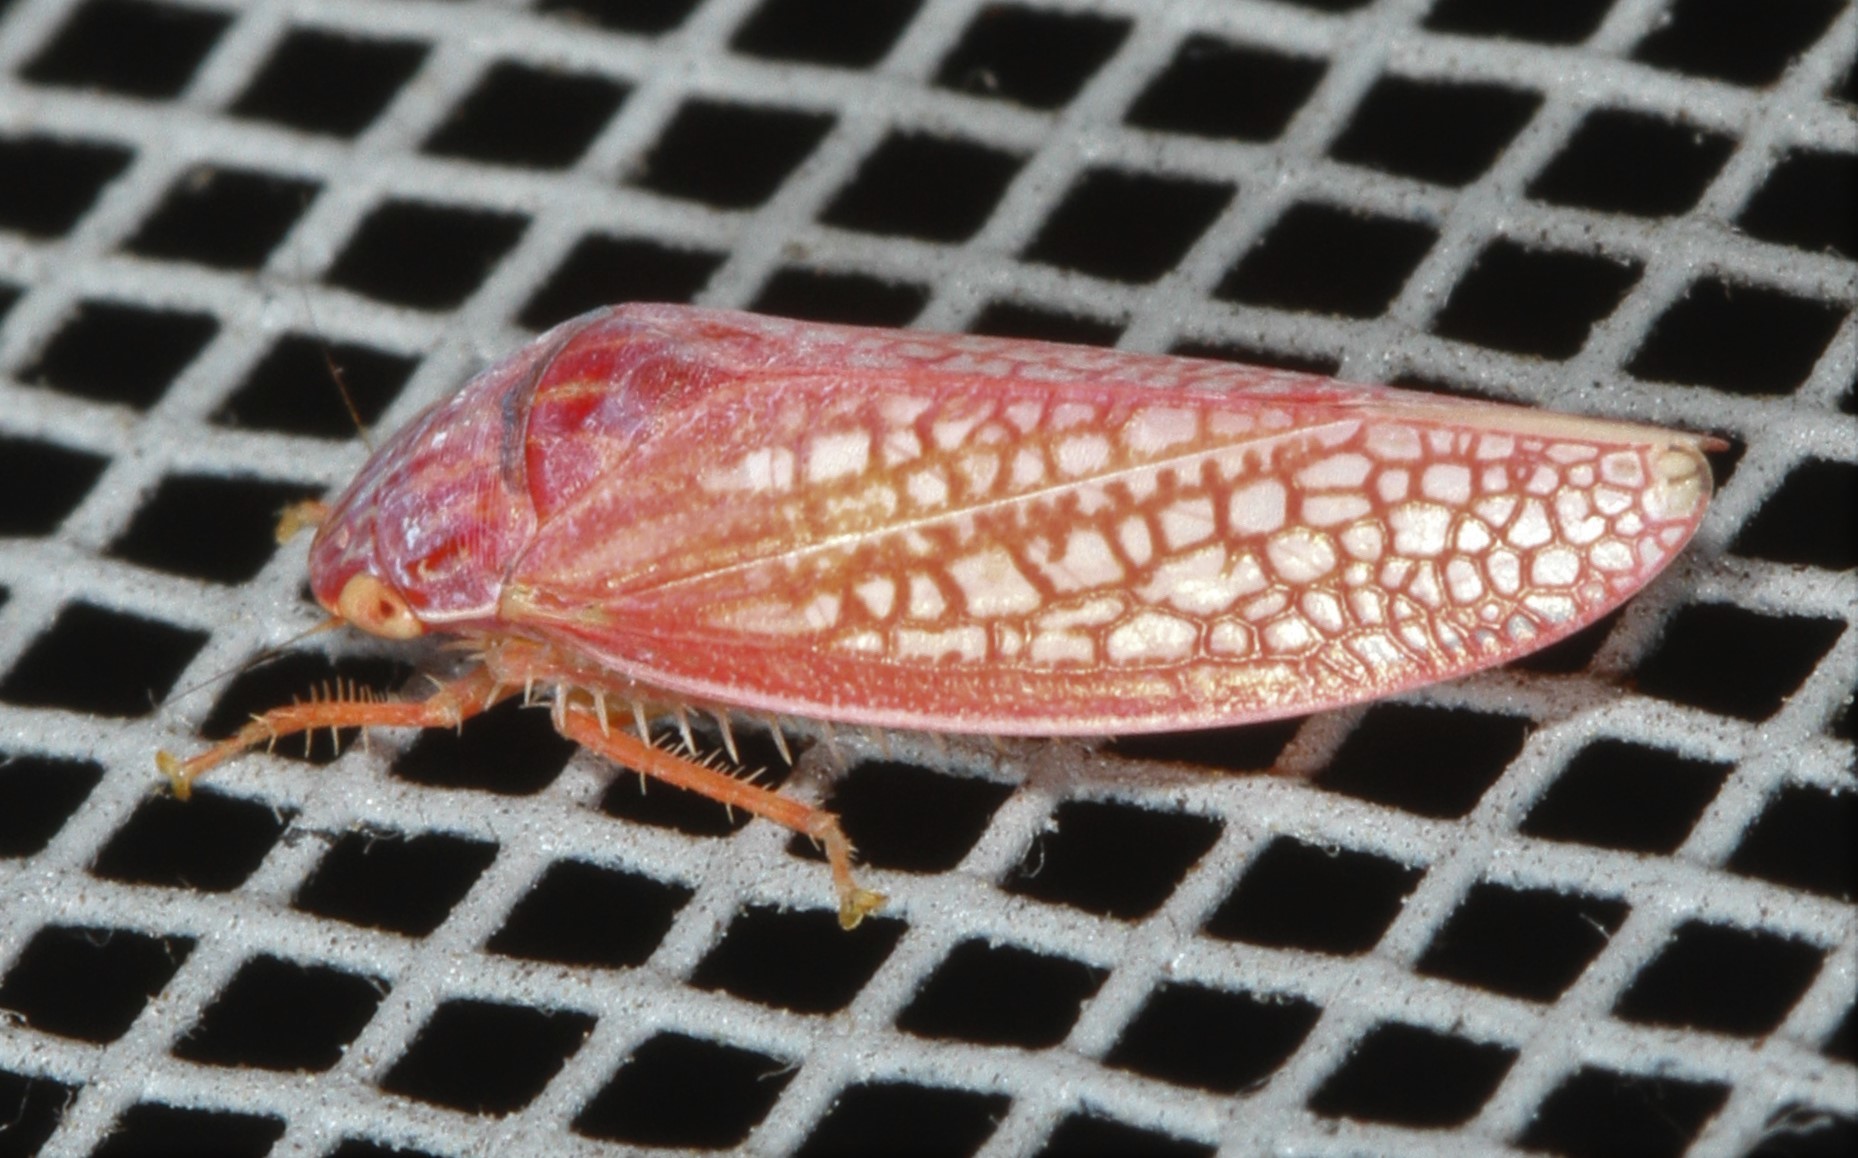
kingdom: Animalia
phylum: Arthropoda
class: Insecta
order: Hemiptera
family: Cicadellidae
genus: Gyponana
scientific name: Gyponana gladia
